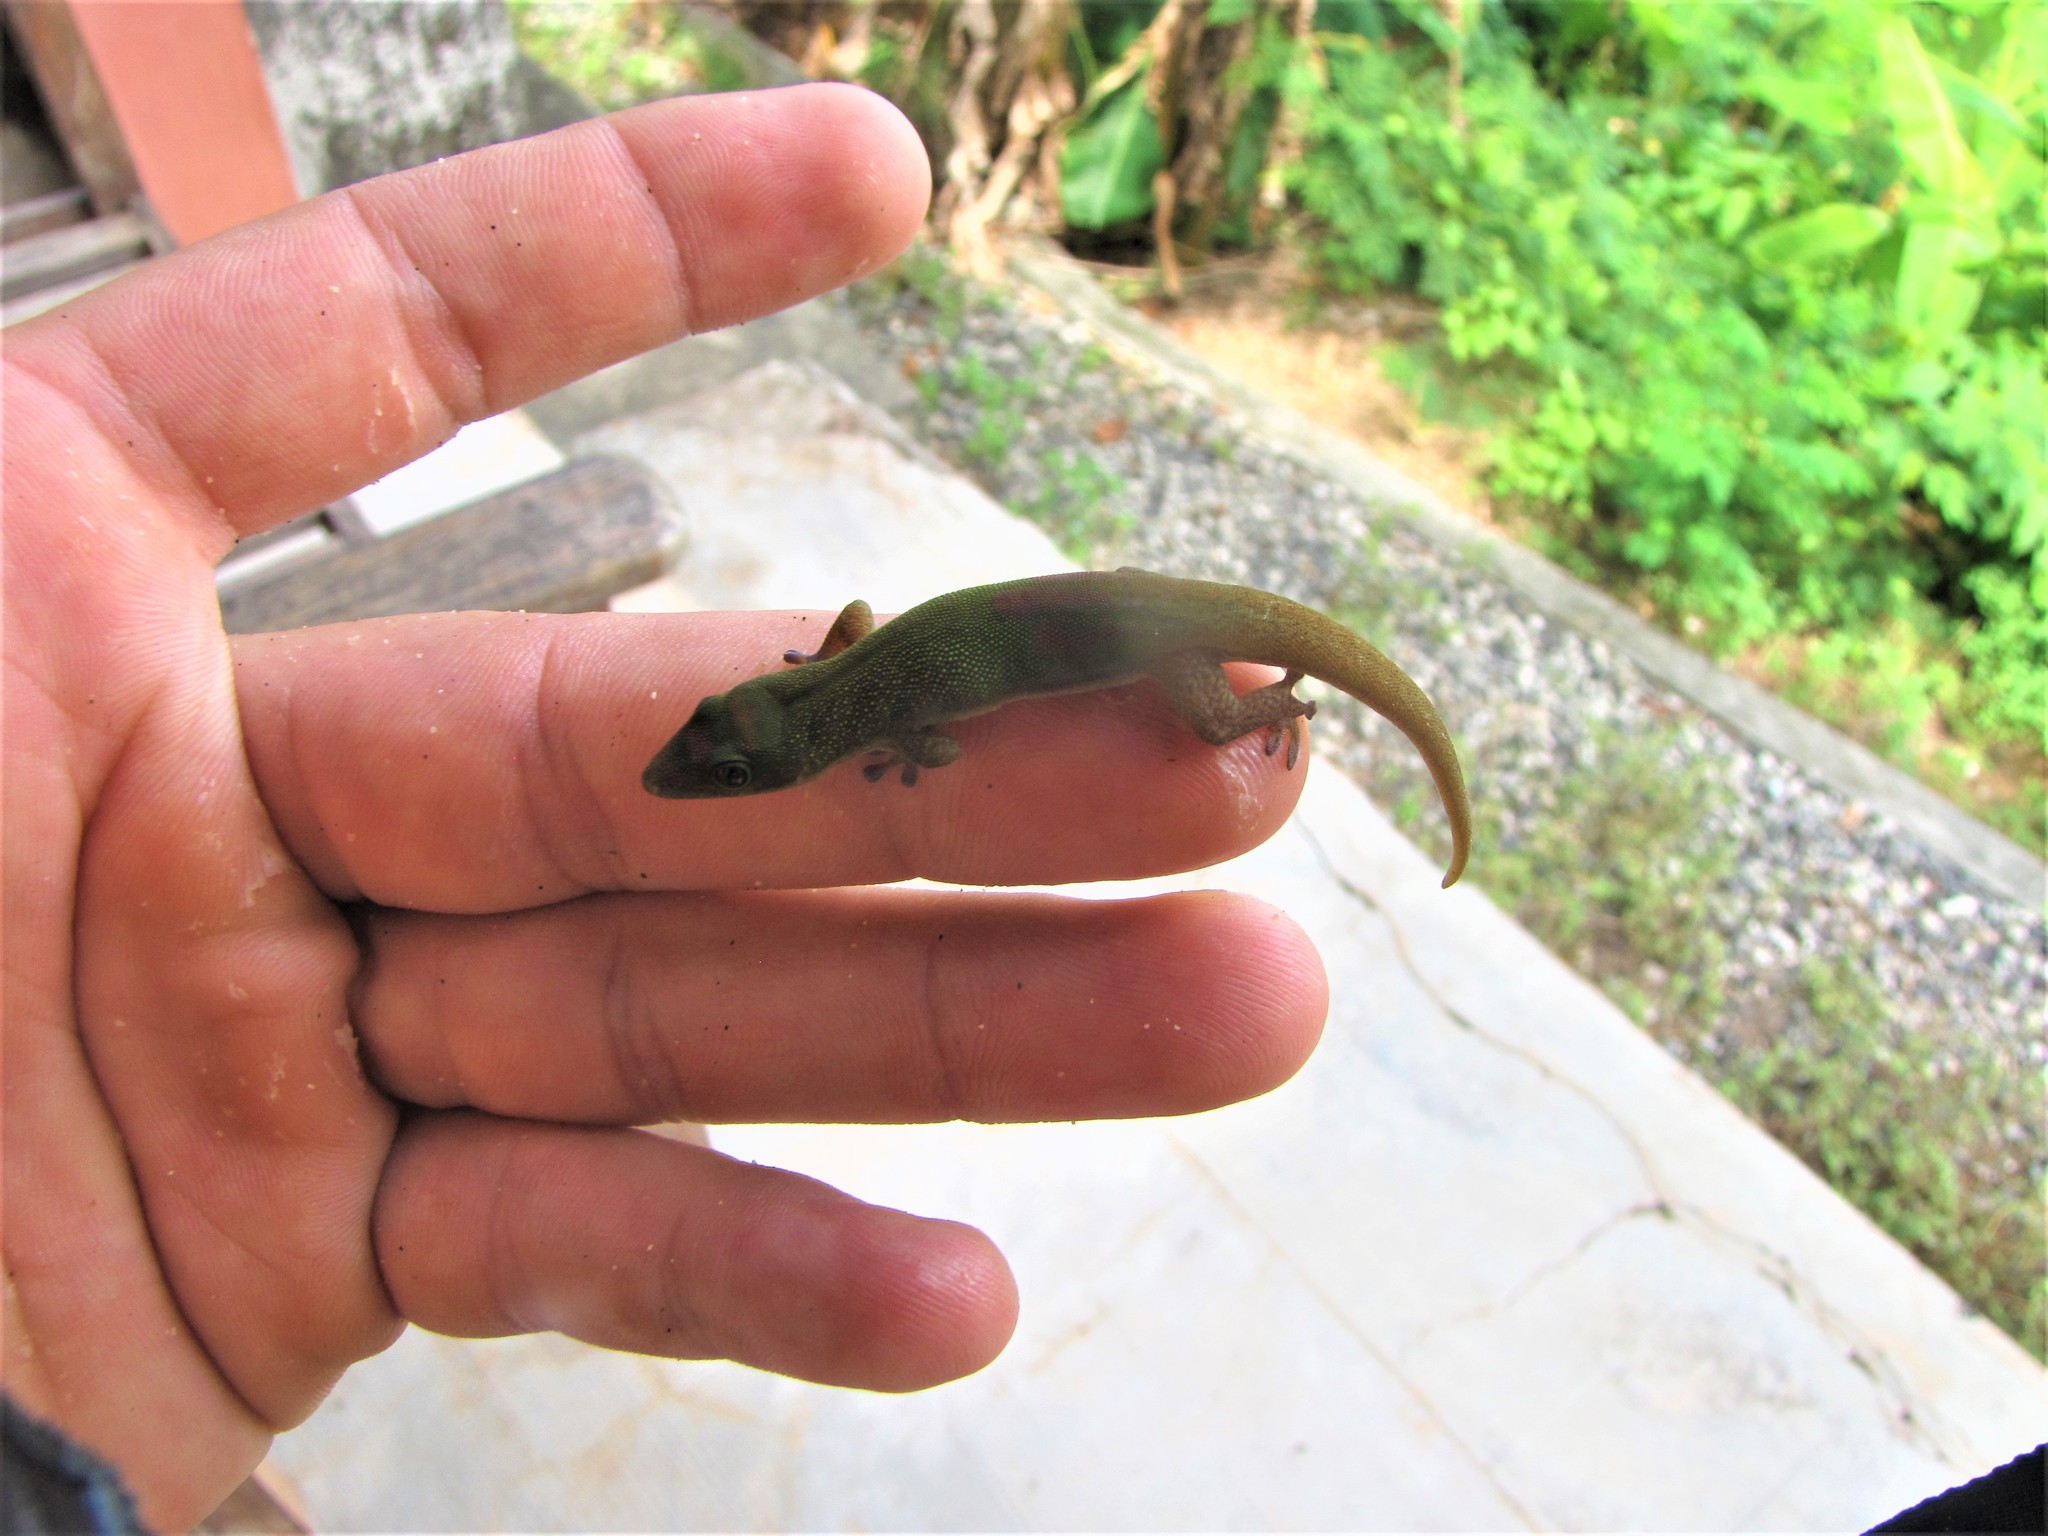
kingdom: Animalia
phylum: Chordata
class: Squamata
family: Gekkonidae
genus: Phelsuma
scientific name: Phelsuma laticauda
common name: Gold dust day gecko
